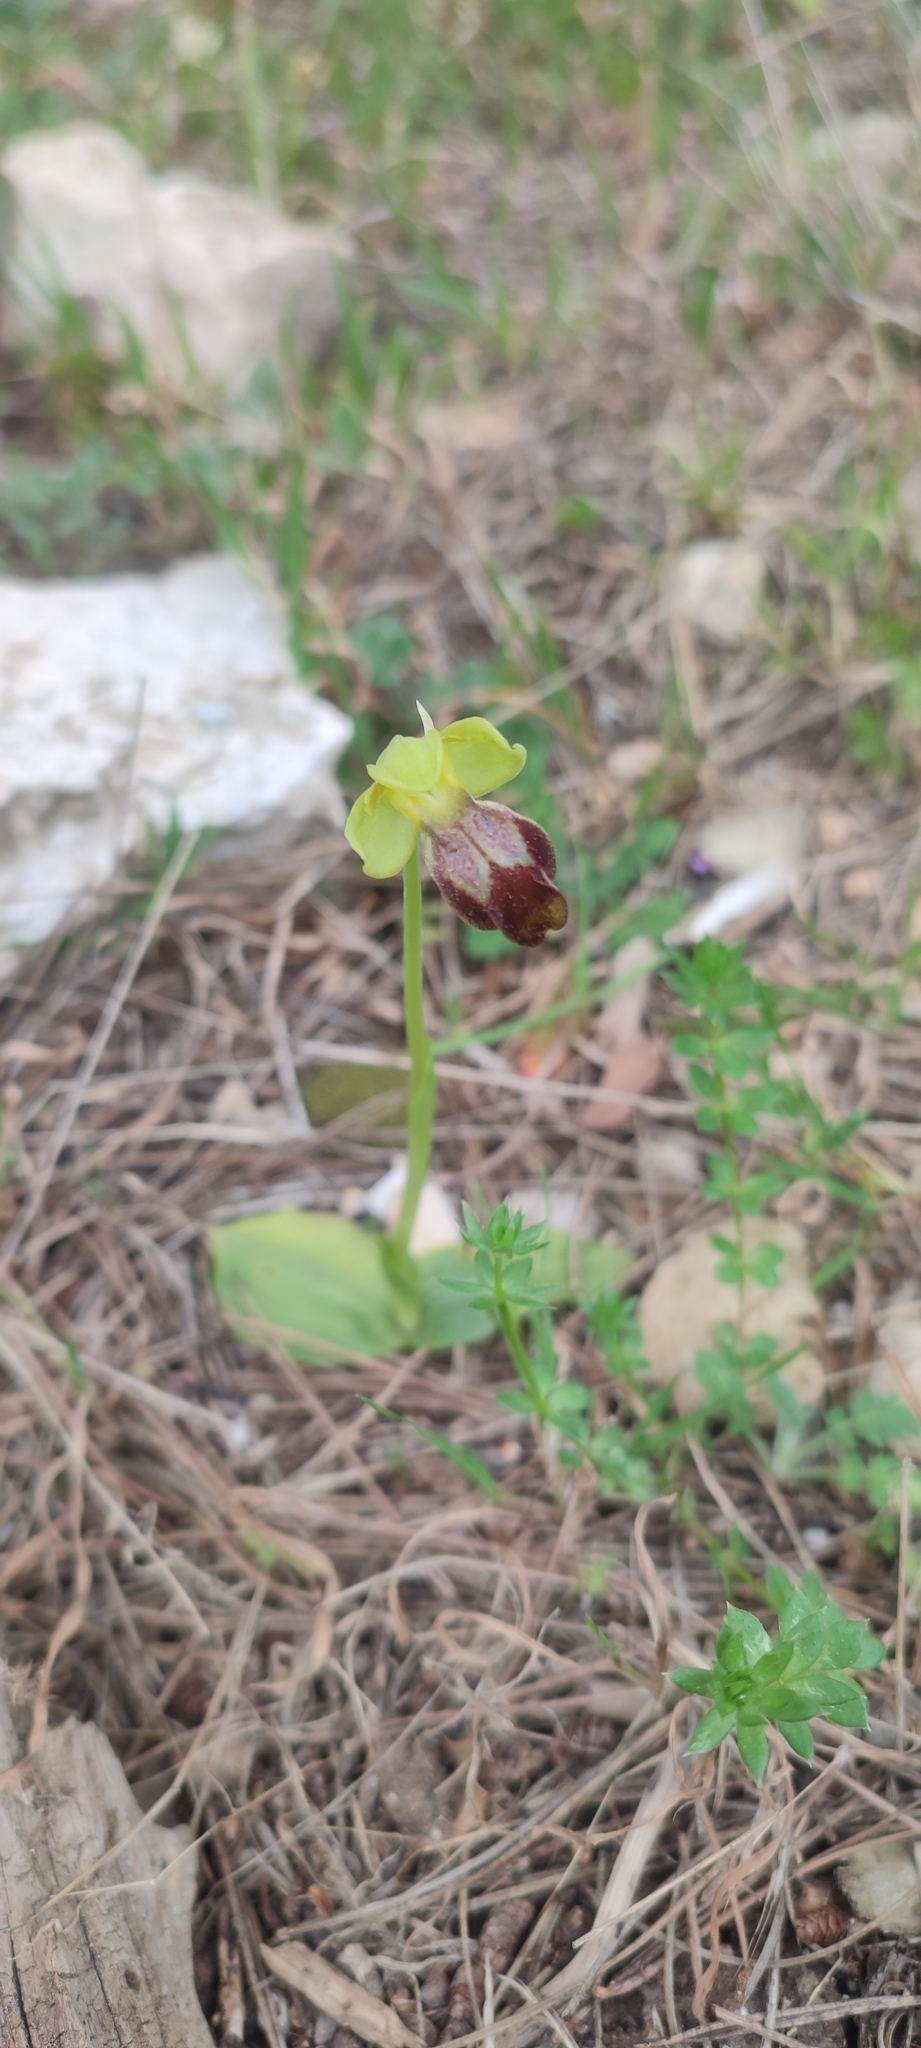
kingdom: Plantae
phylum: Tracheophyta
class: Liliopsida
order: Asparagales
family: Orchidaceae
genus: Ophrys
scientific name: Ophrys fusca
